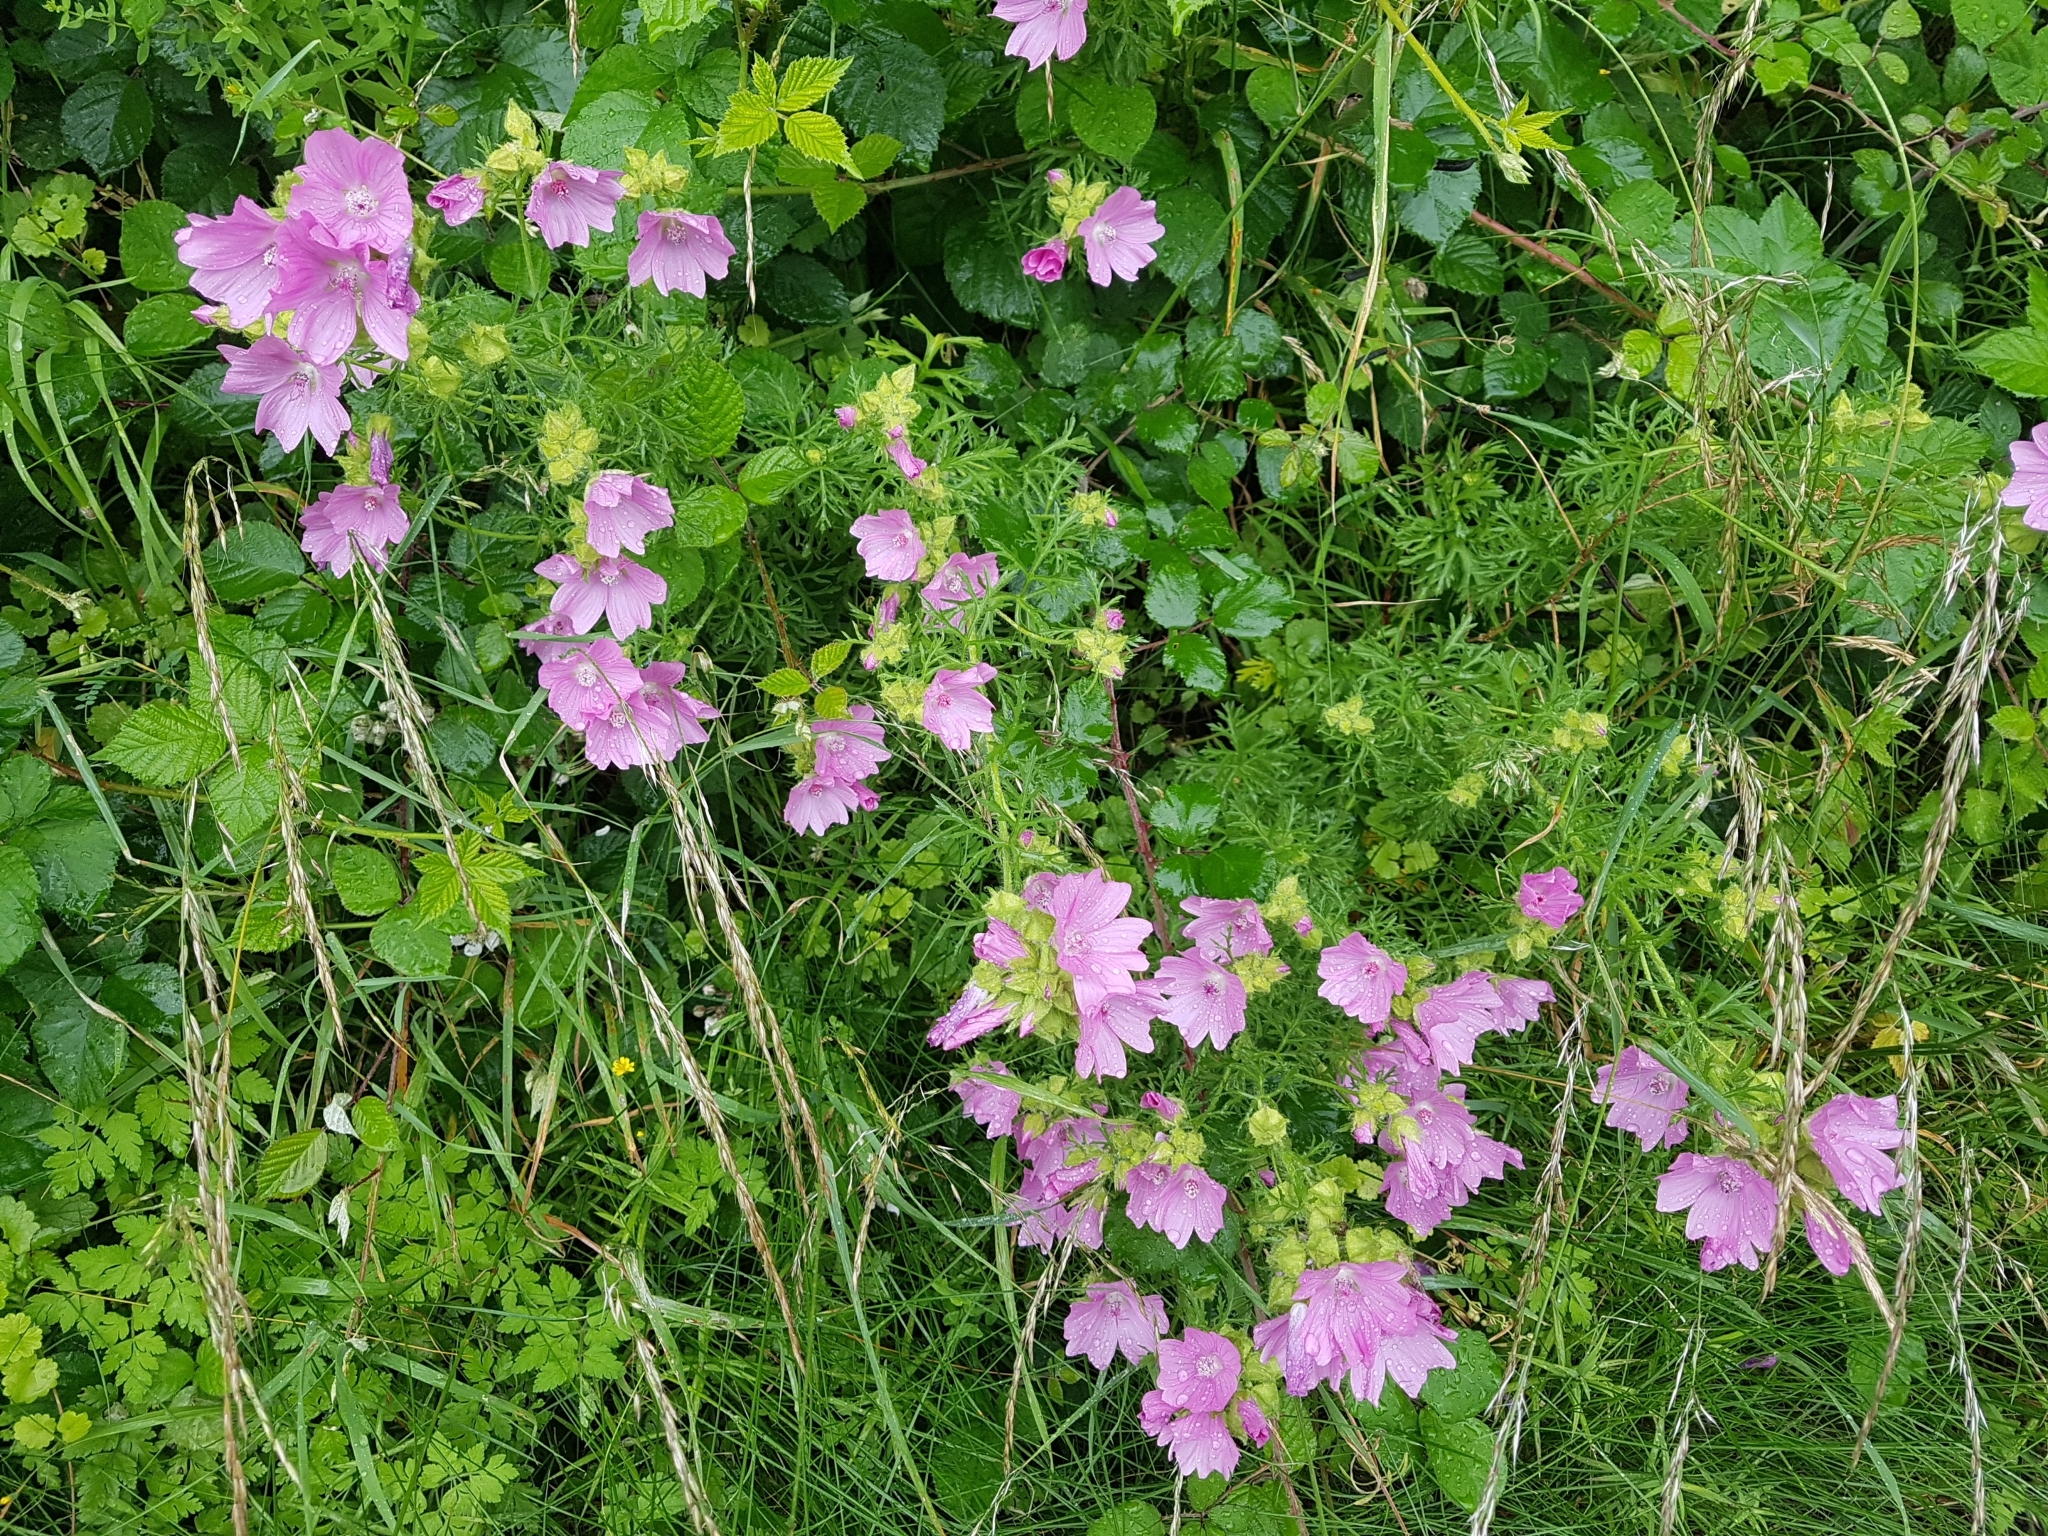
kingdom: Plantae
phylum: Tracheophyta
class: Magnoliopsida
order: Malvales
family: Malvaceae
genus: Malva
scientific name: Malva moschata
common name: Musk mallow
